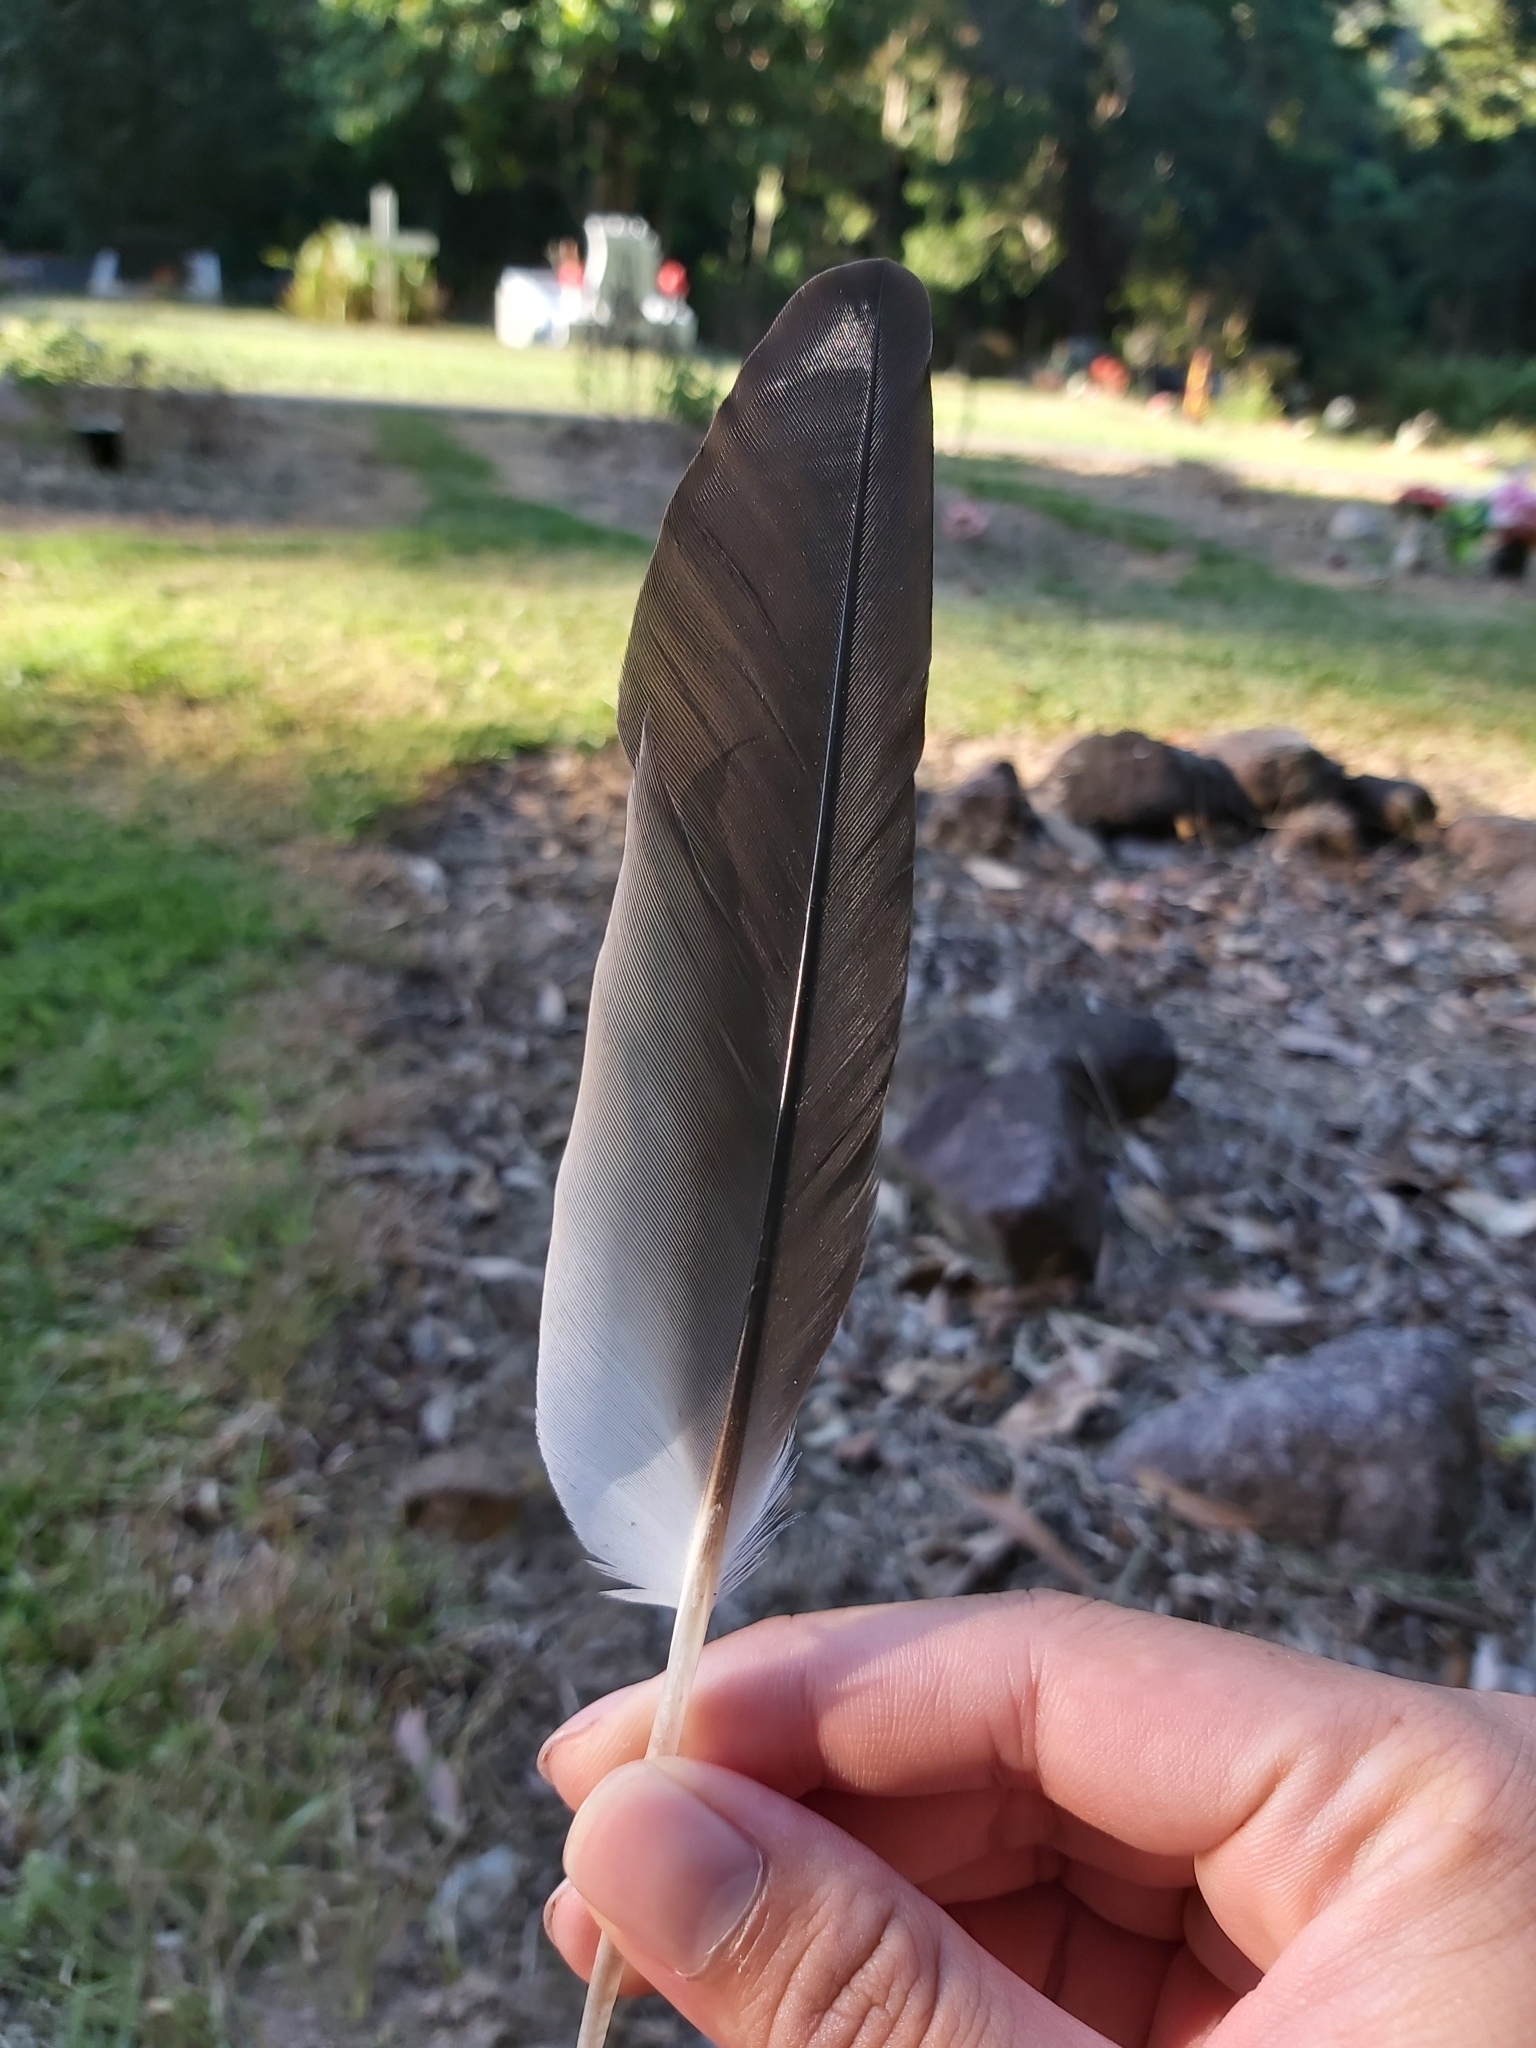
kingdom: Animalia
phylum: Chordata
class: Aves
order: Charadriiformes
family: Charadriidae
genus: Vanellus
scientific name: Vanellus miles
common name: Masked lapwing
